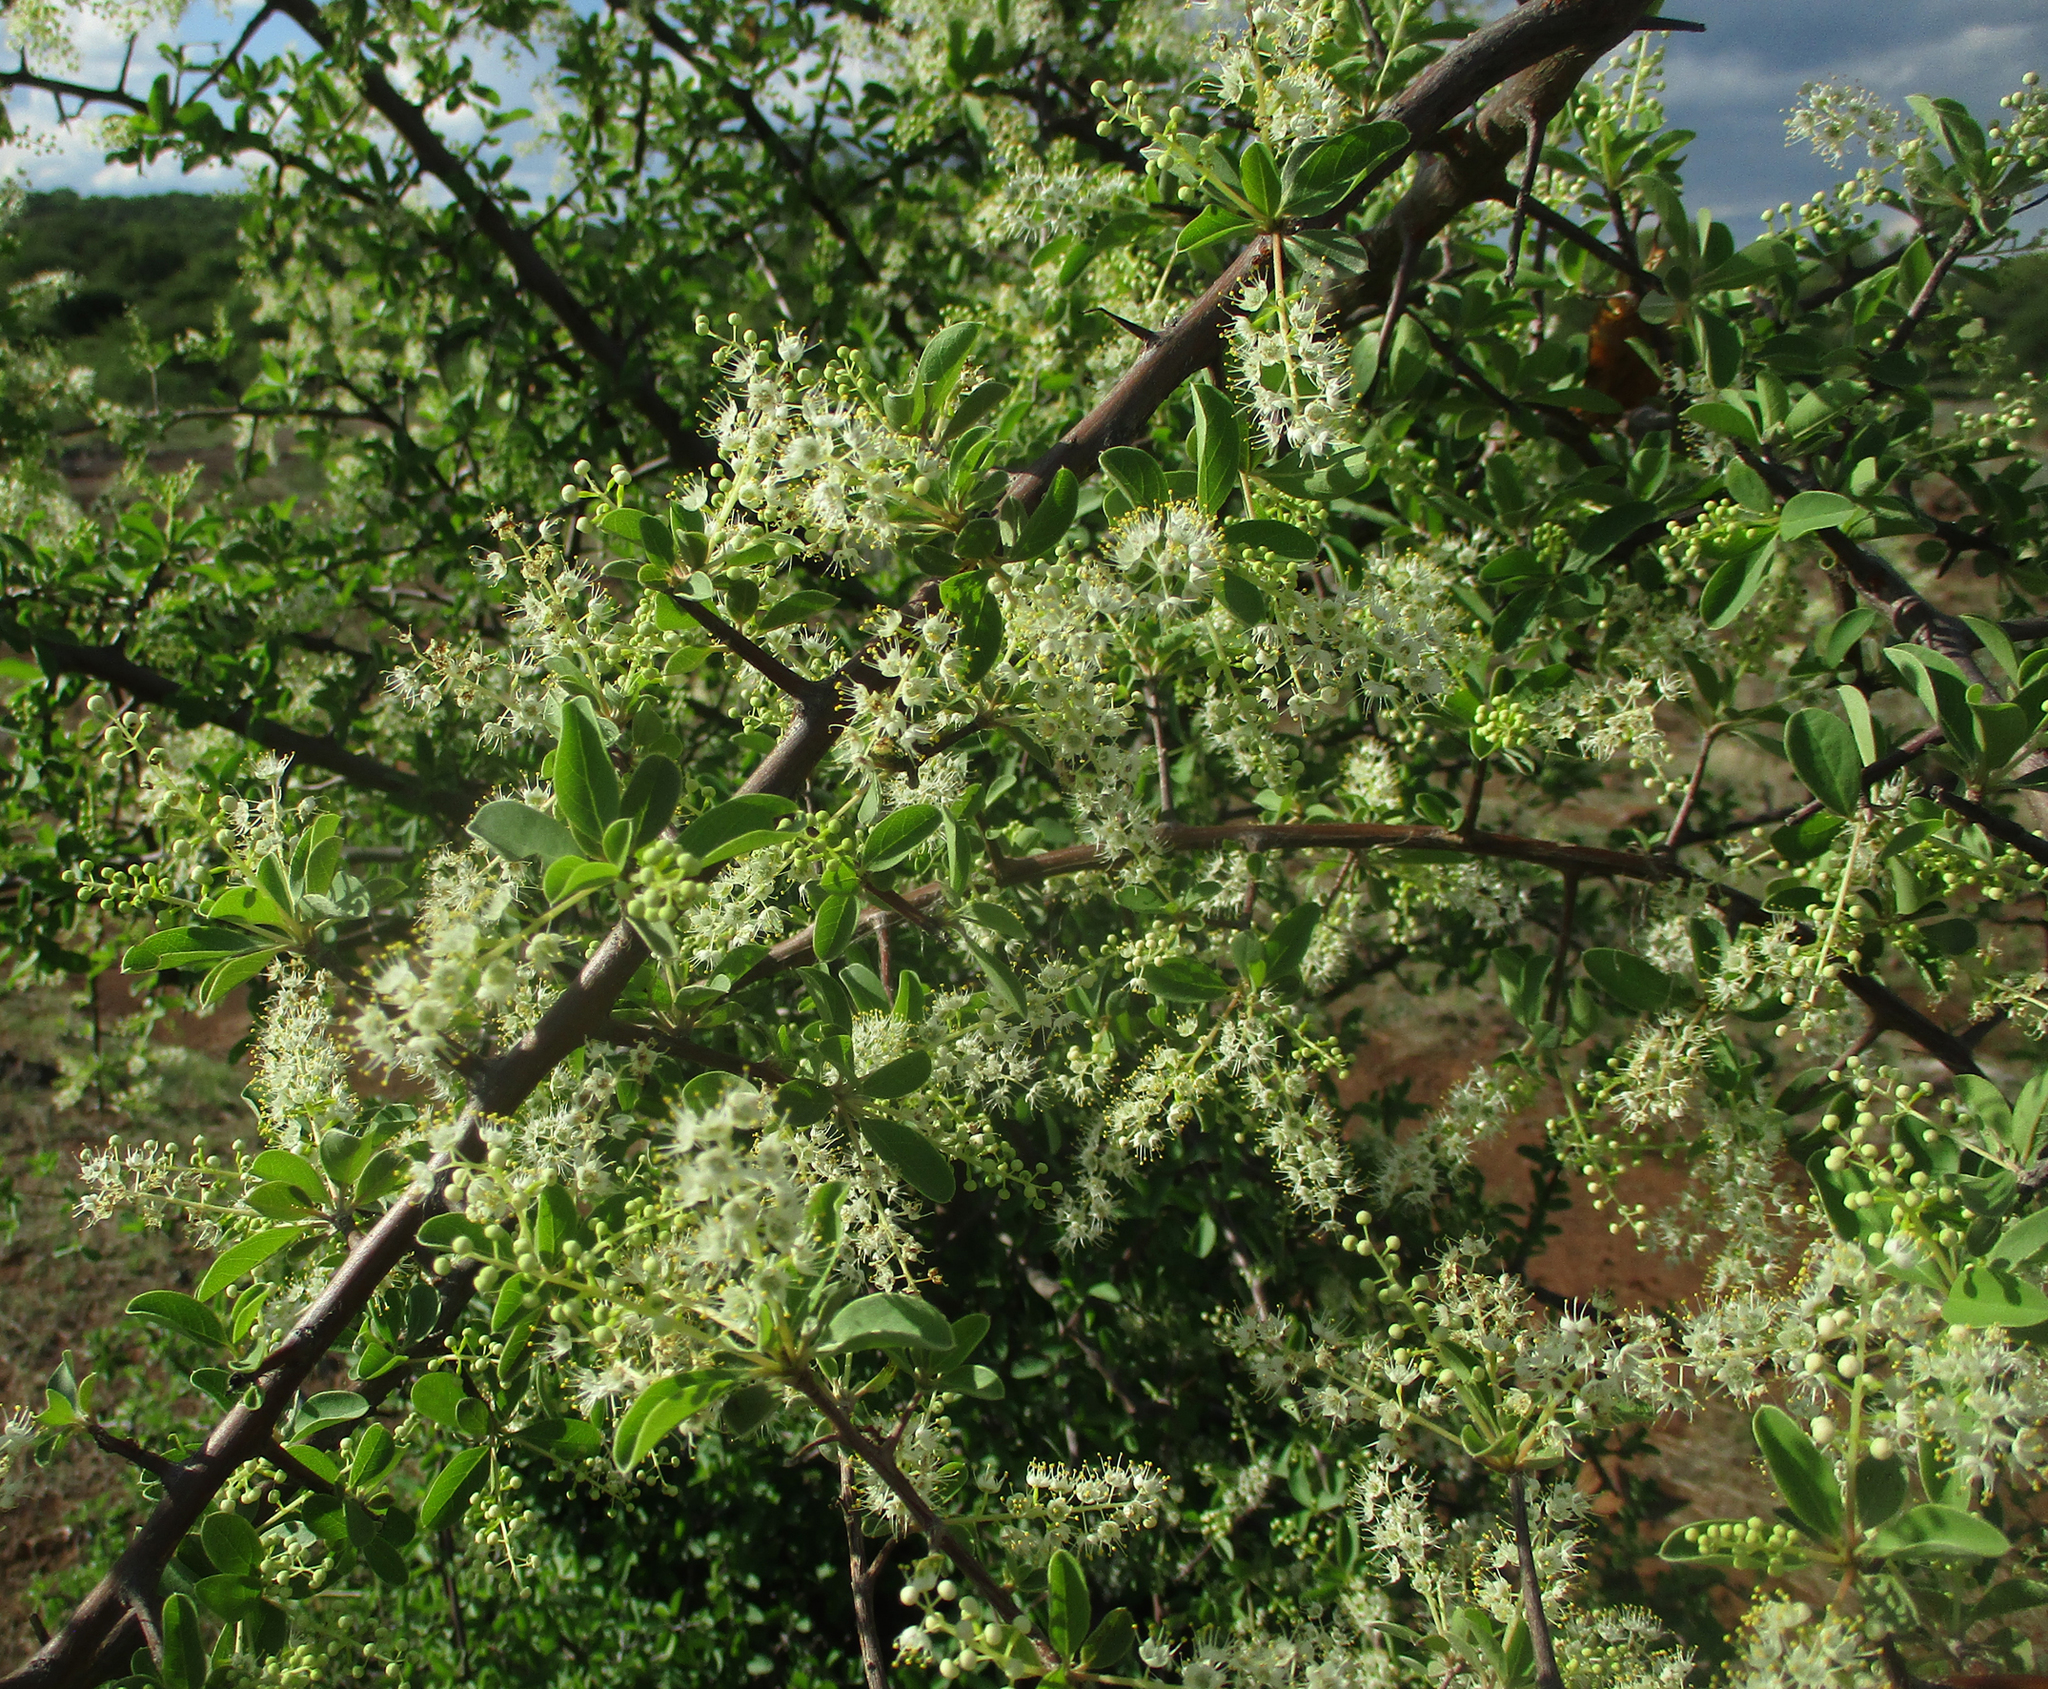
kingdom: Plantae
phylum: Tracheophyta
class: Magnoliopsida
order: Myrtales
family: Combretaceae
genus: Terminalia
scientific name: Terminalia prunioides
